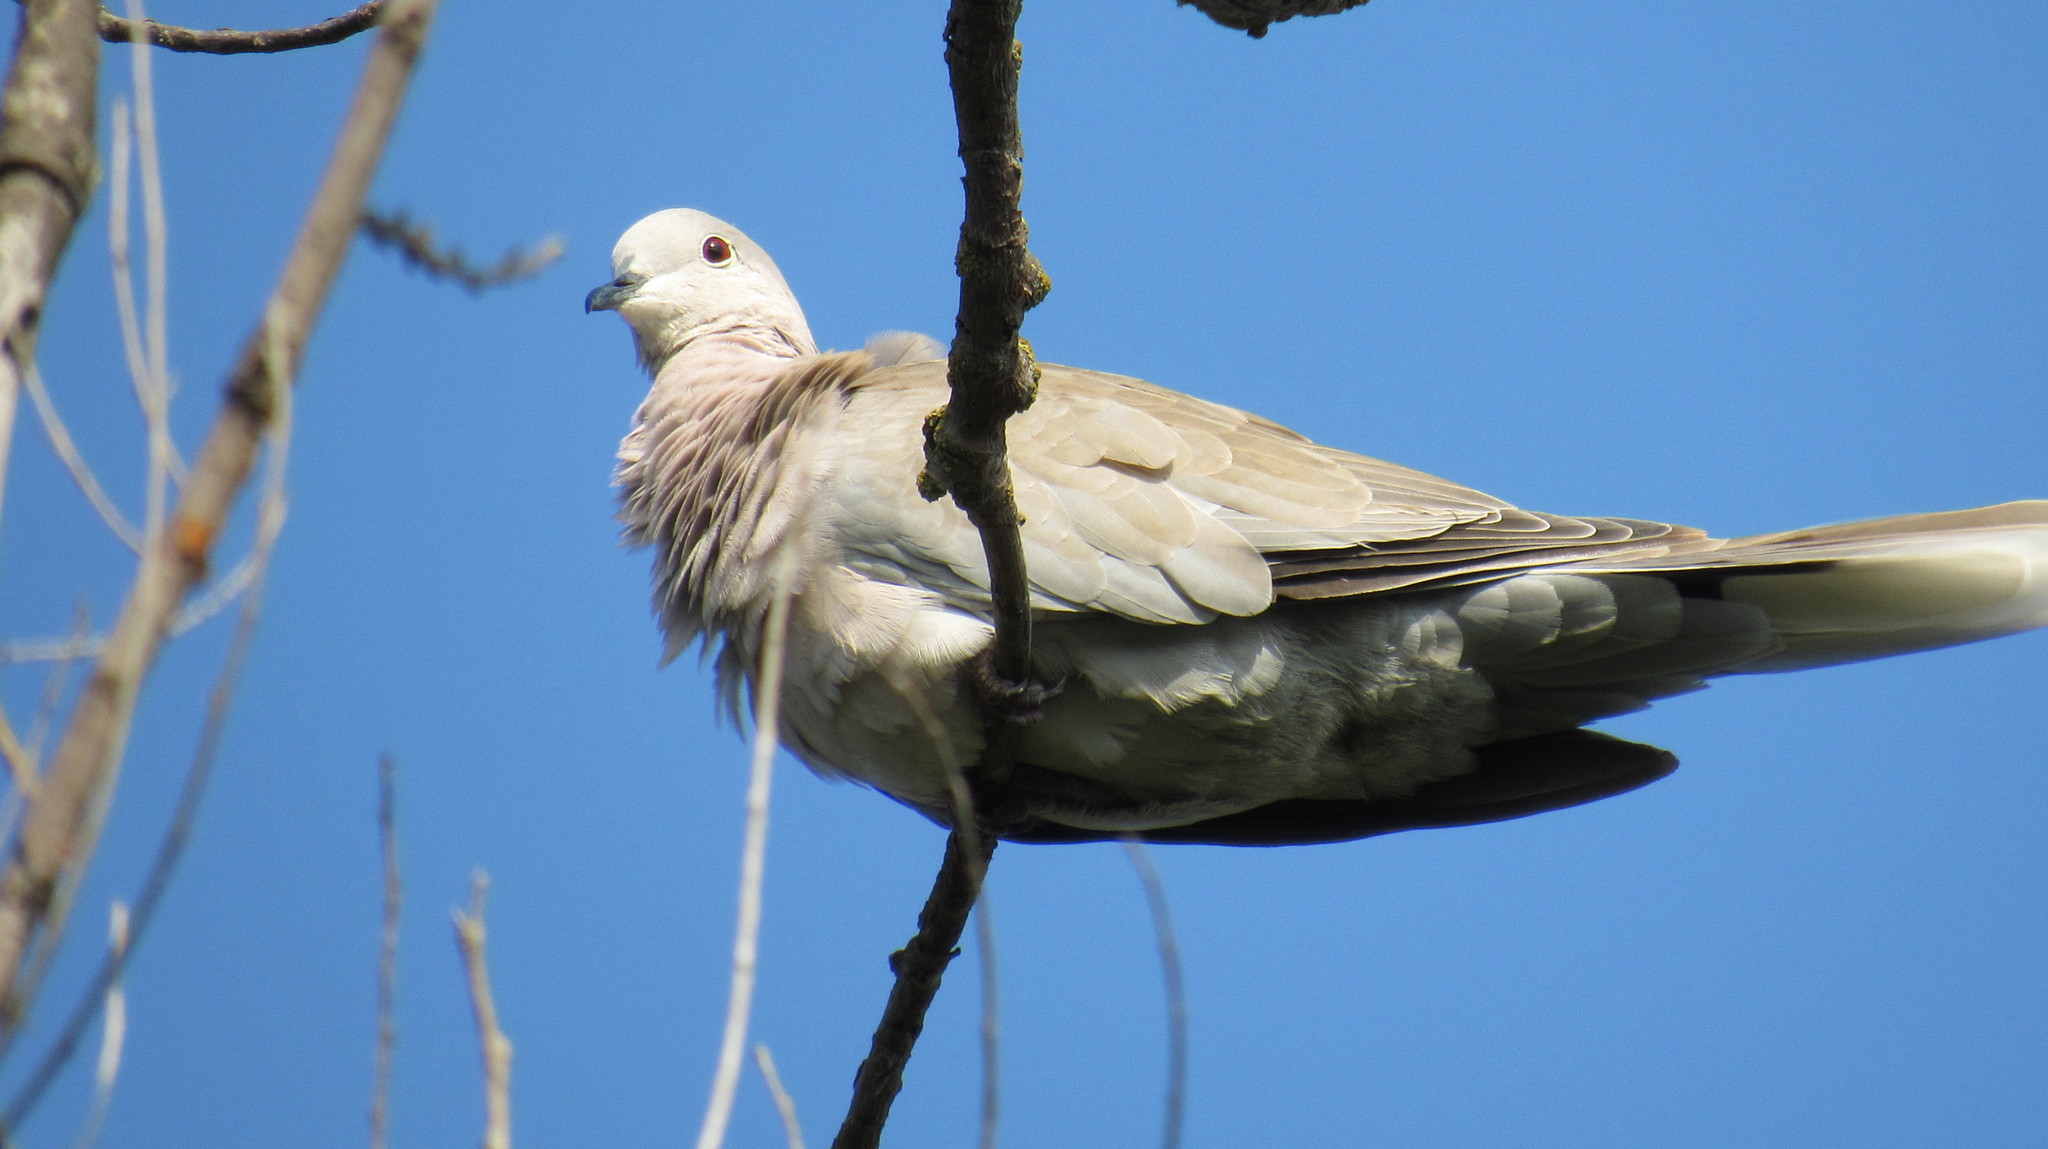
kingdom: Animalia
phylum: Chordata
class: Aves
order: Columbiformes
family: Columbidae
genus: Streptopelia
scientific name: Streptopelia decaocto
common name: Eurasian collared dove
